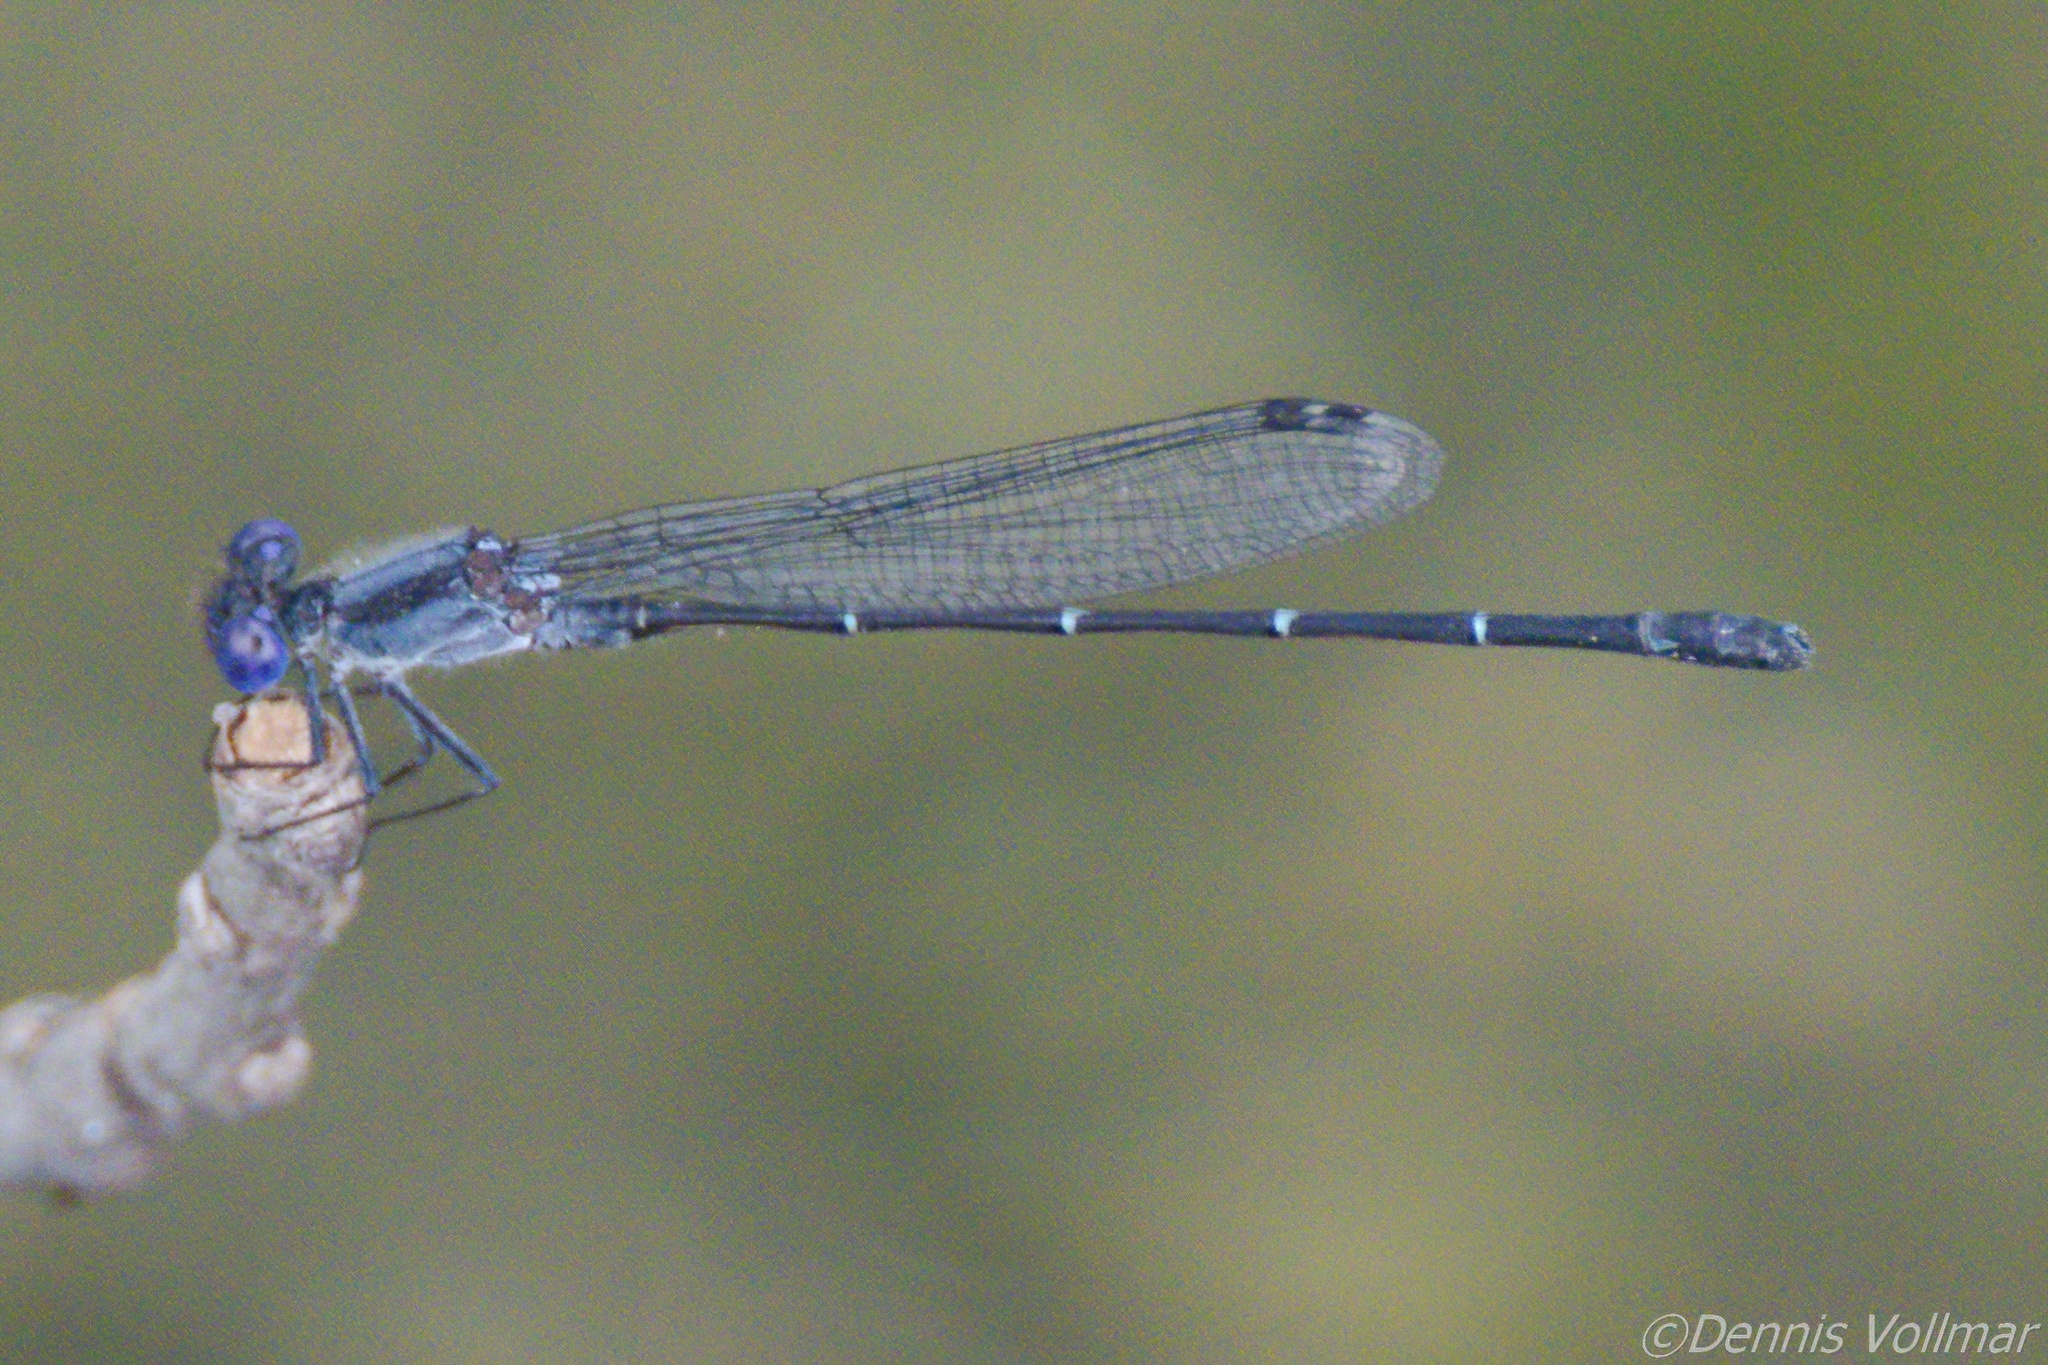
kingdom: Animalia
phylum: Arthropoda
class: Insecta
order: Odonata
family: Coenagrionidae
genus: Argia
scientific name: Argia translata
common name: Dusky dancer
